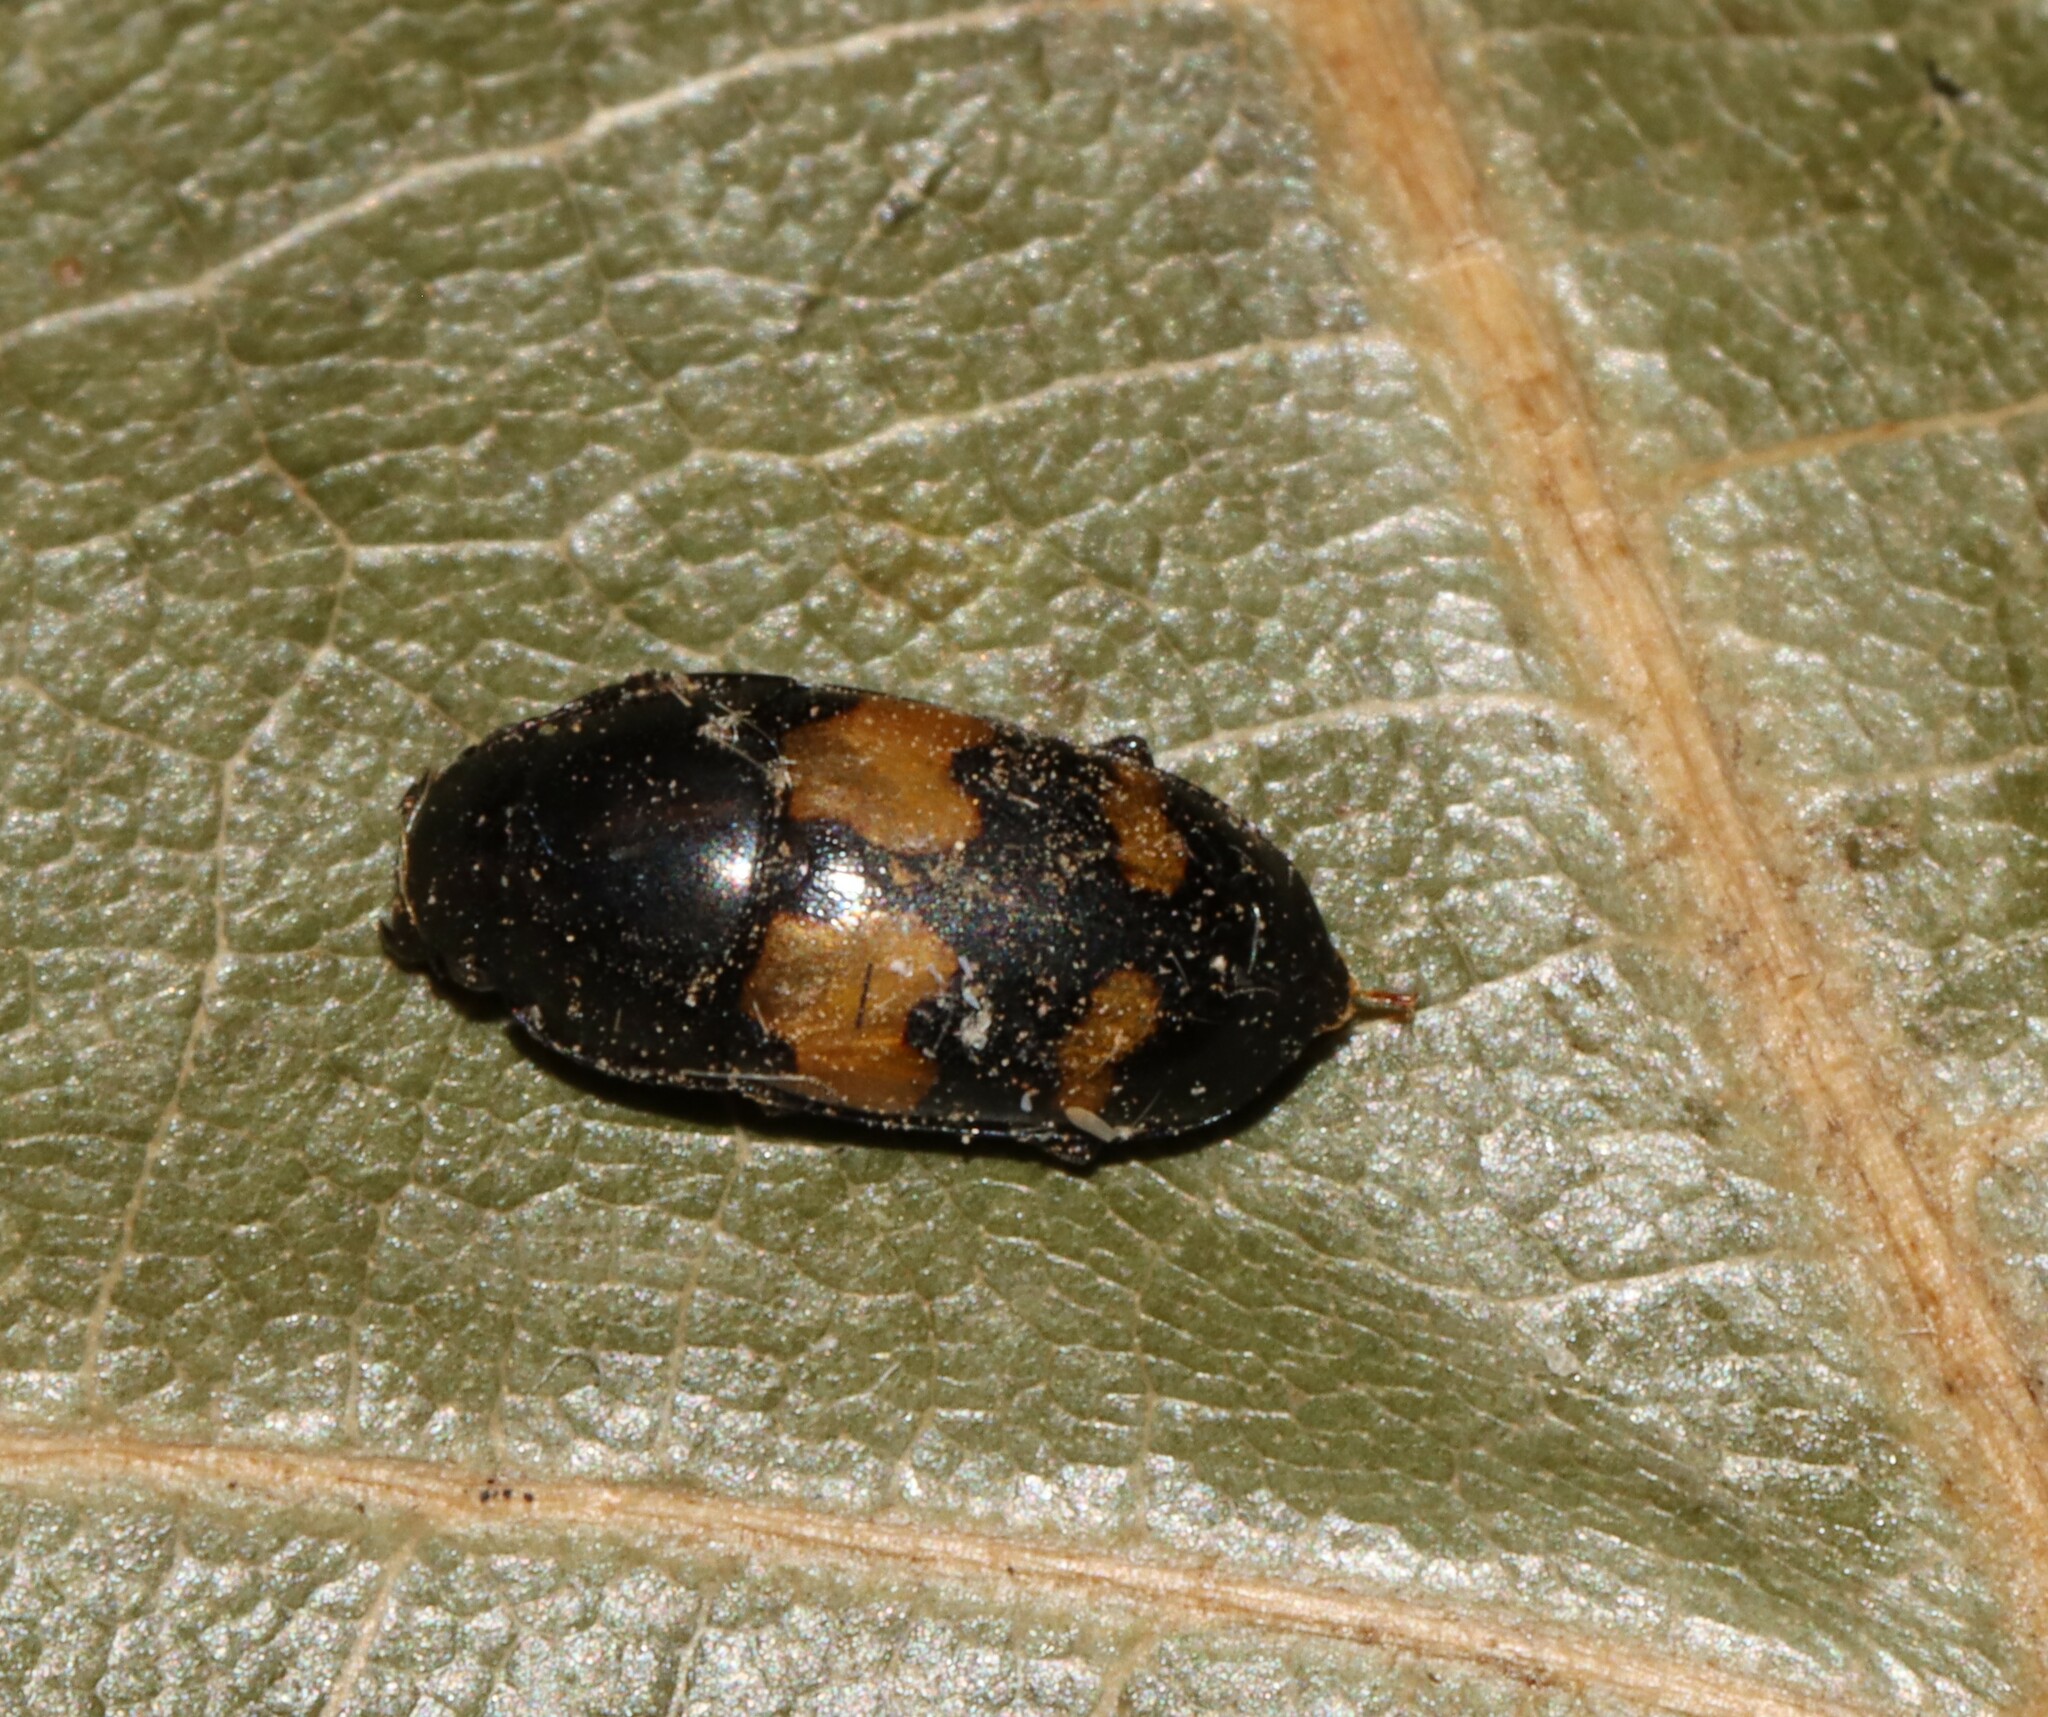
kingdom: Animalia
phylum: Arthropoda
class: Insecta
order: Coleoptera
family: Nitidulidae
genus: Glischrochilus
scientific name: Glischrochilus fasciatus
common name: Picnic beetle
